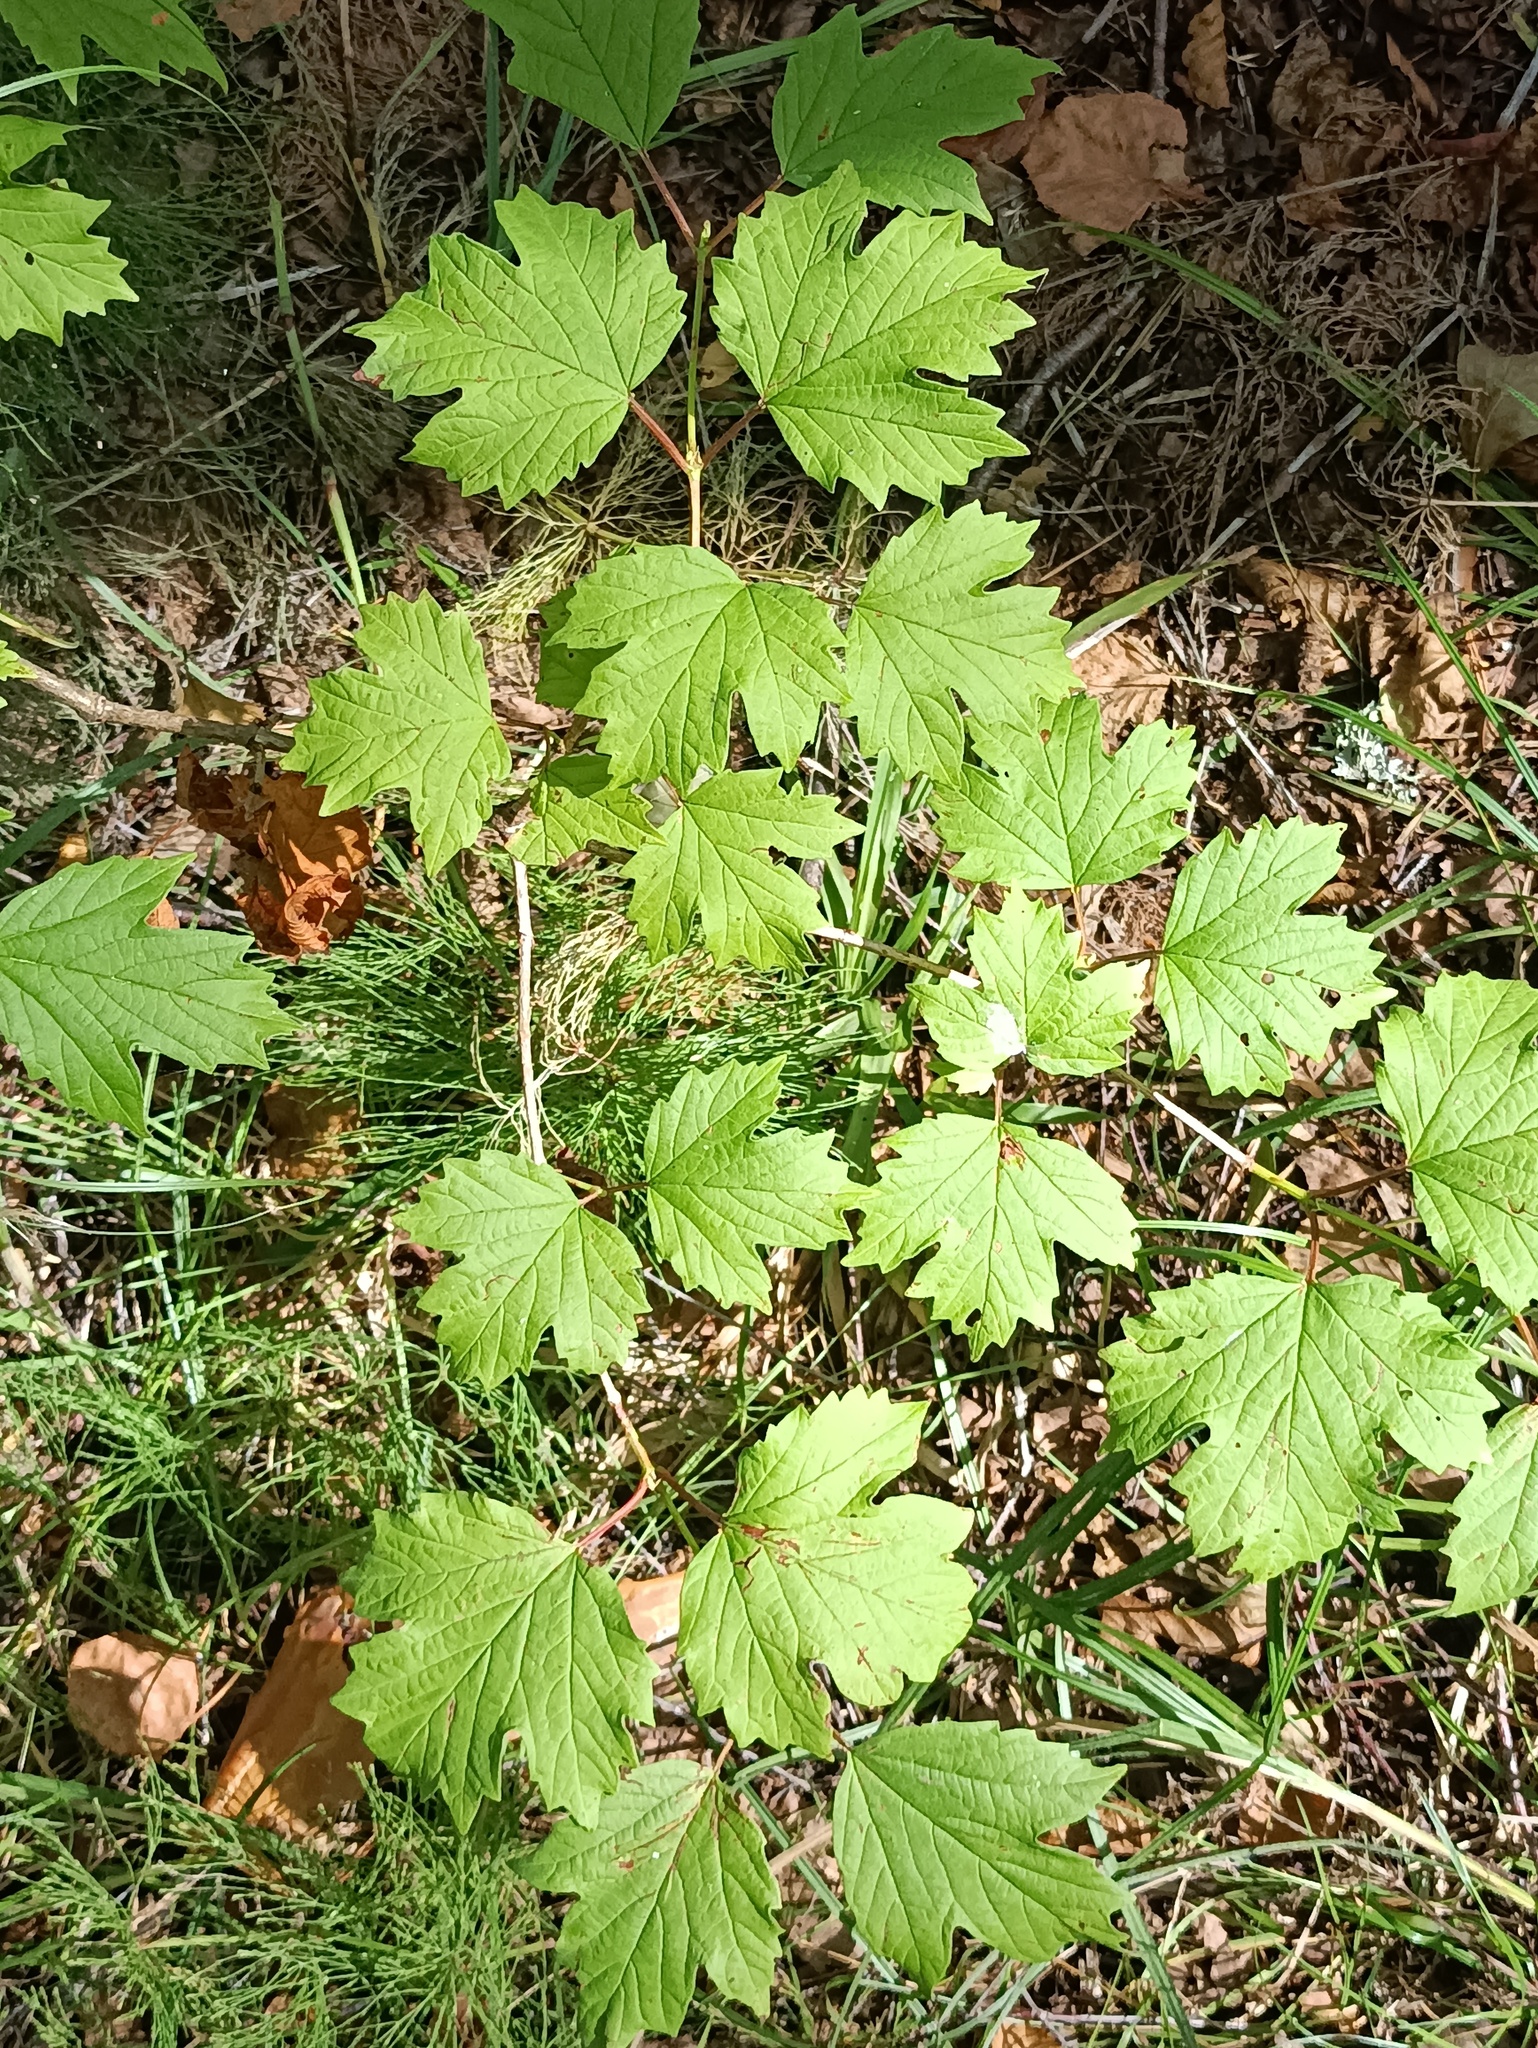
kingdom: Plantae
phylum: Tracheophyta
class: Magnoliopsida
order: Dipsacales
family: Viburnaceae
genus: Viburnum
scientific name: Viburnum opulus
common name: Guelder-rose
